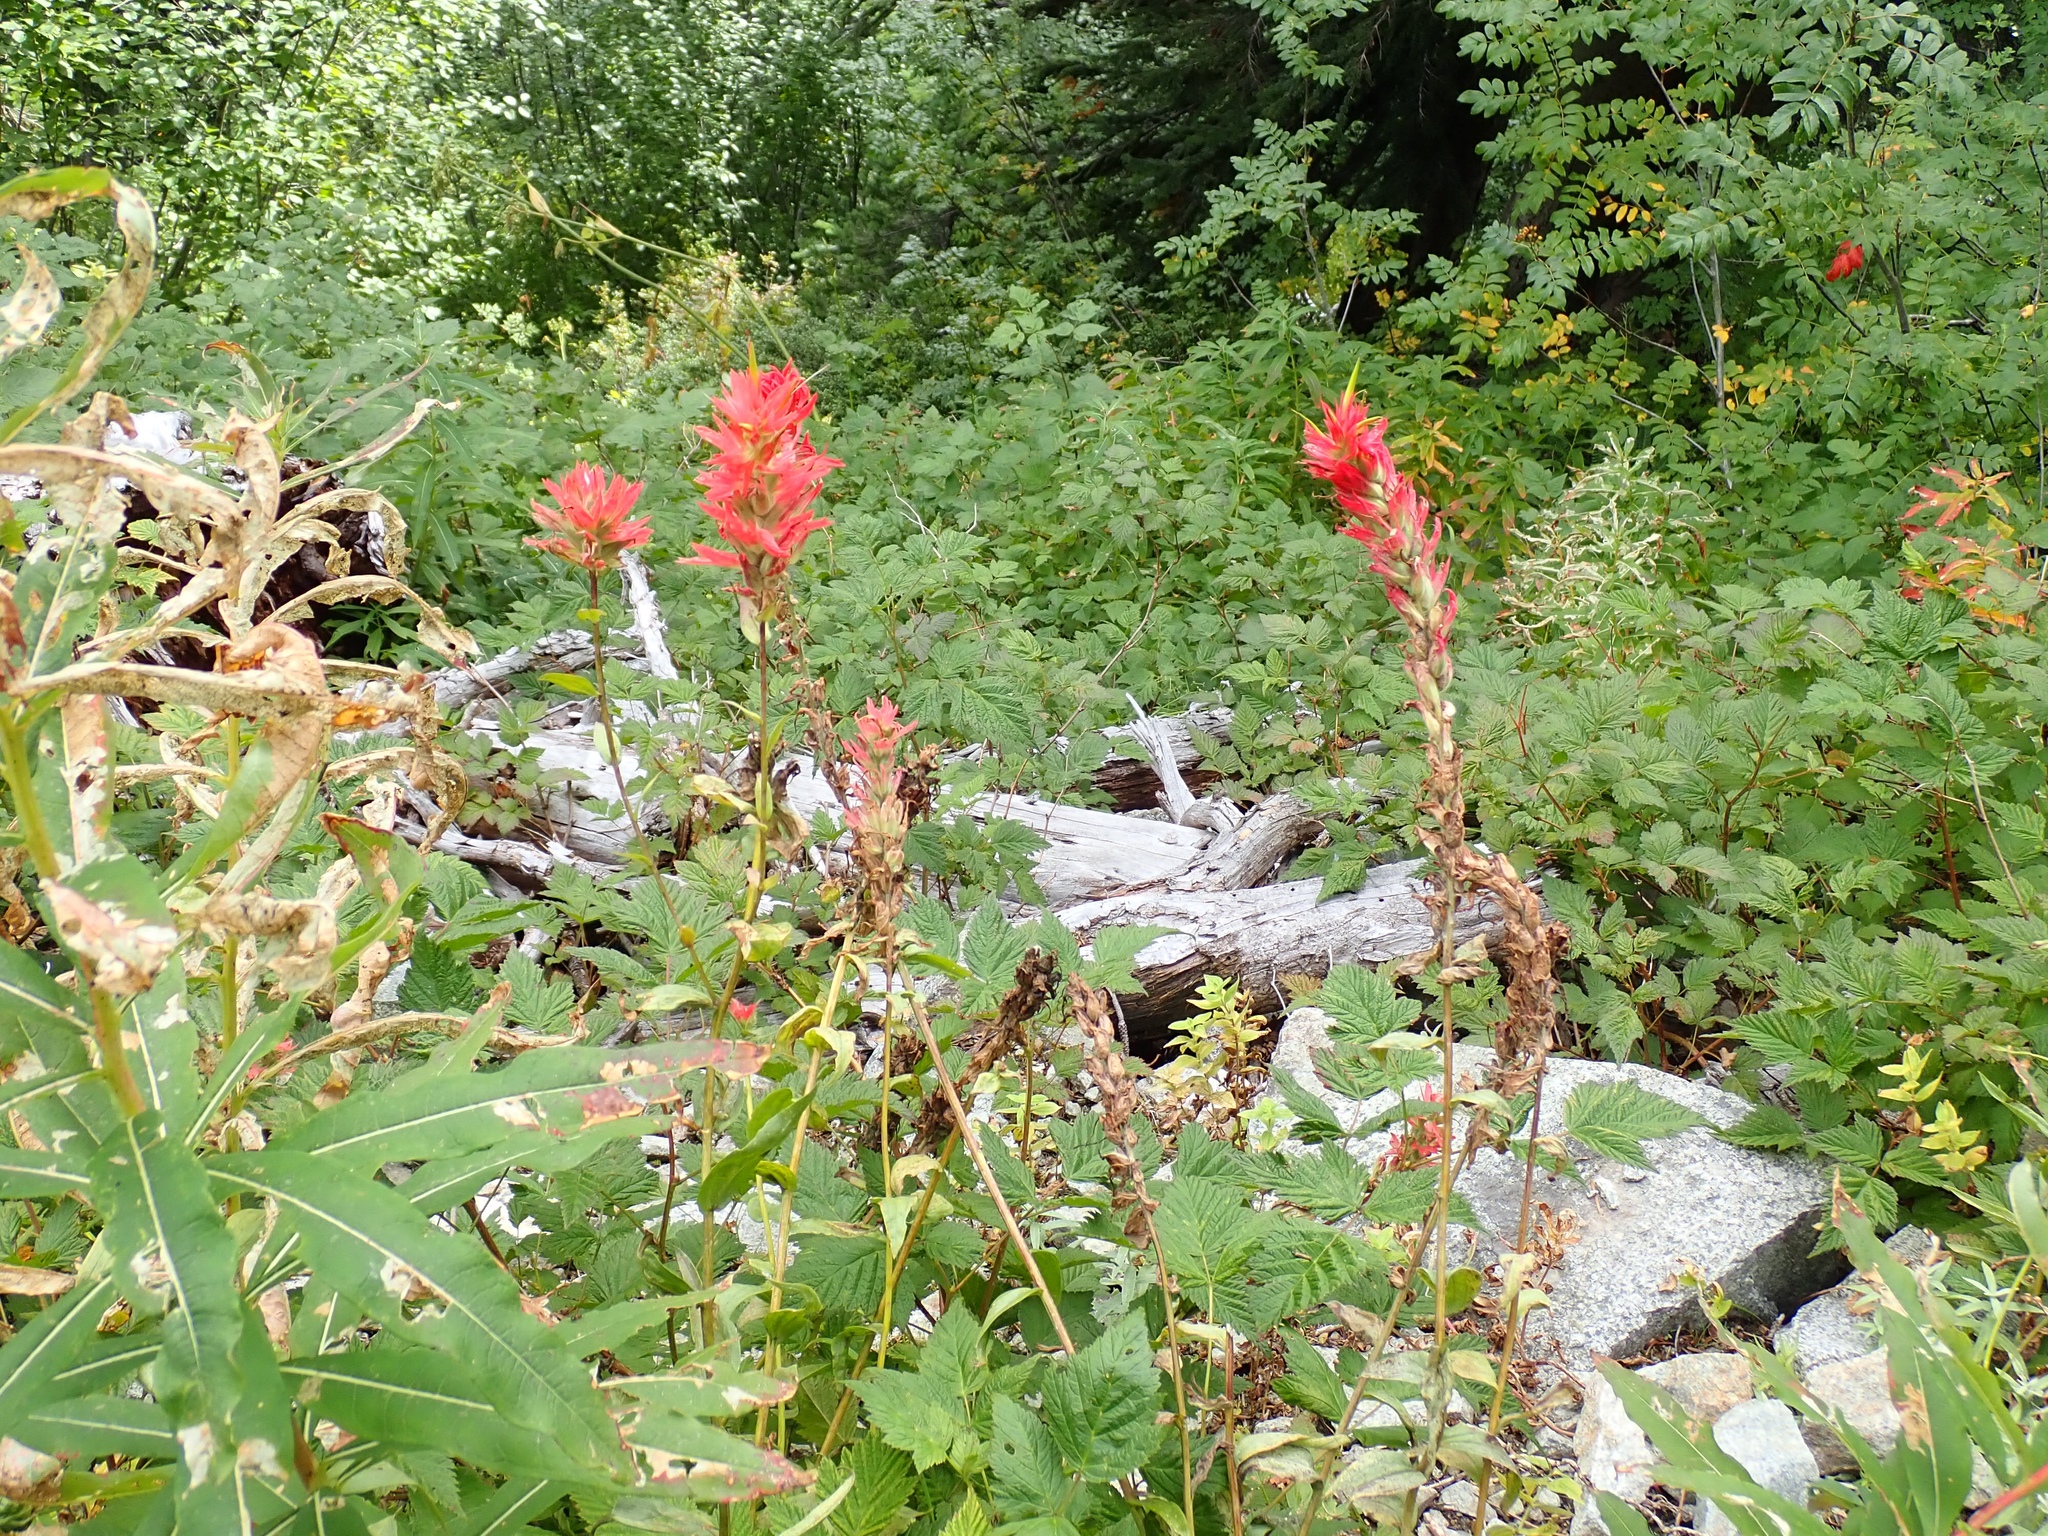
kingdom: Plantae
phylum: Tracheophyta
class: Magnoliopsida
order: Lamiales
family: Orobanchaceae
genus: Castilleja
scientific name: Castilleja miniata
